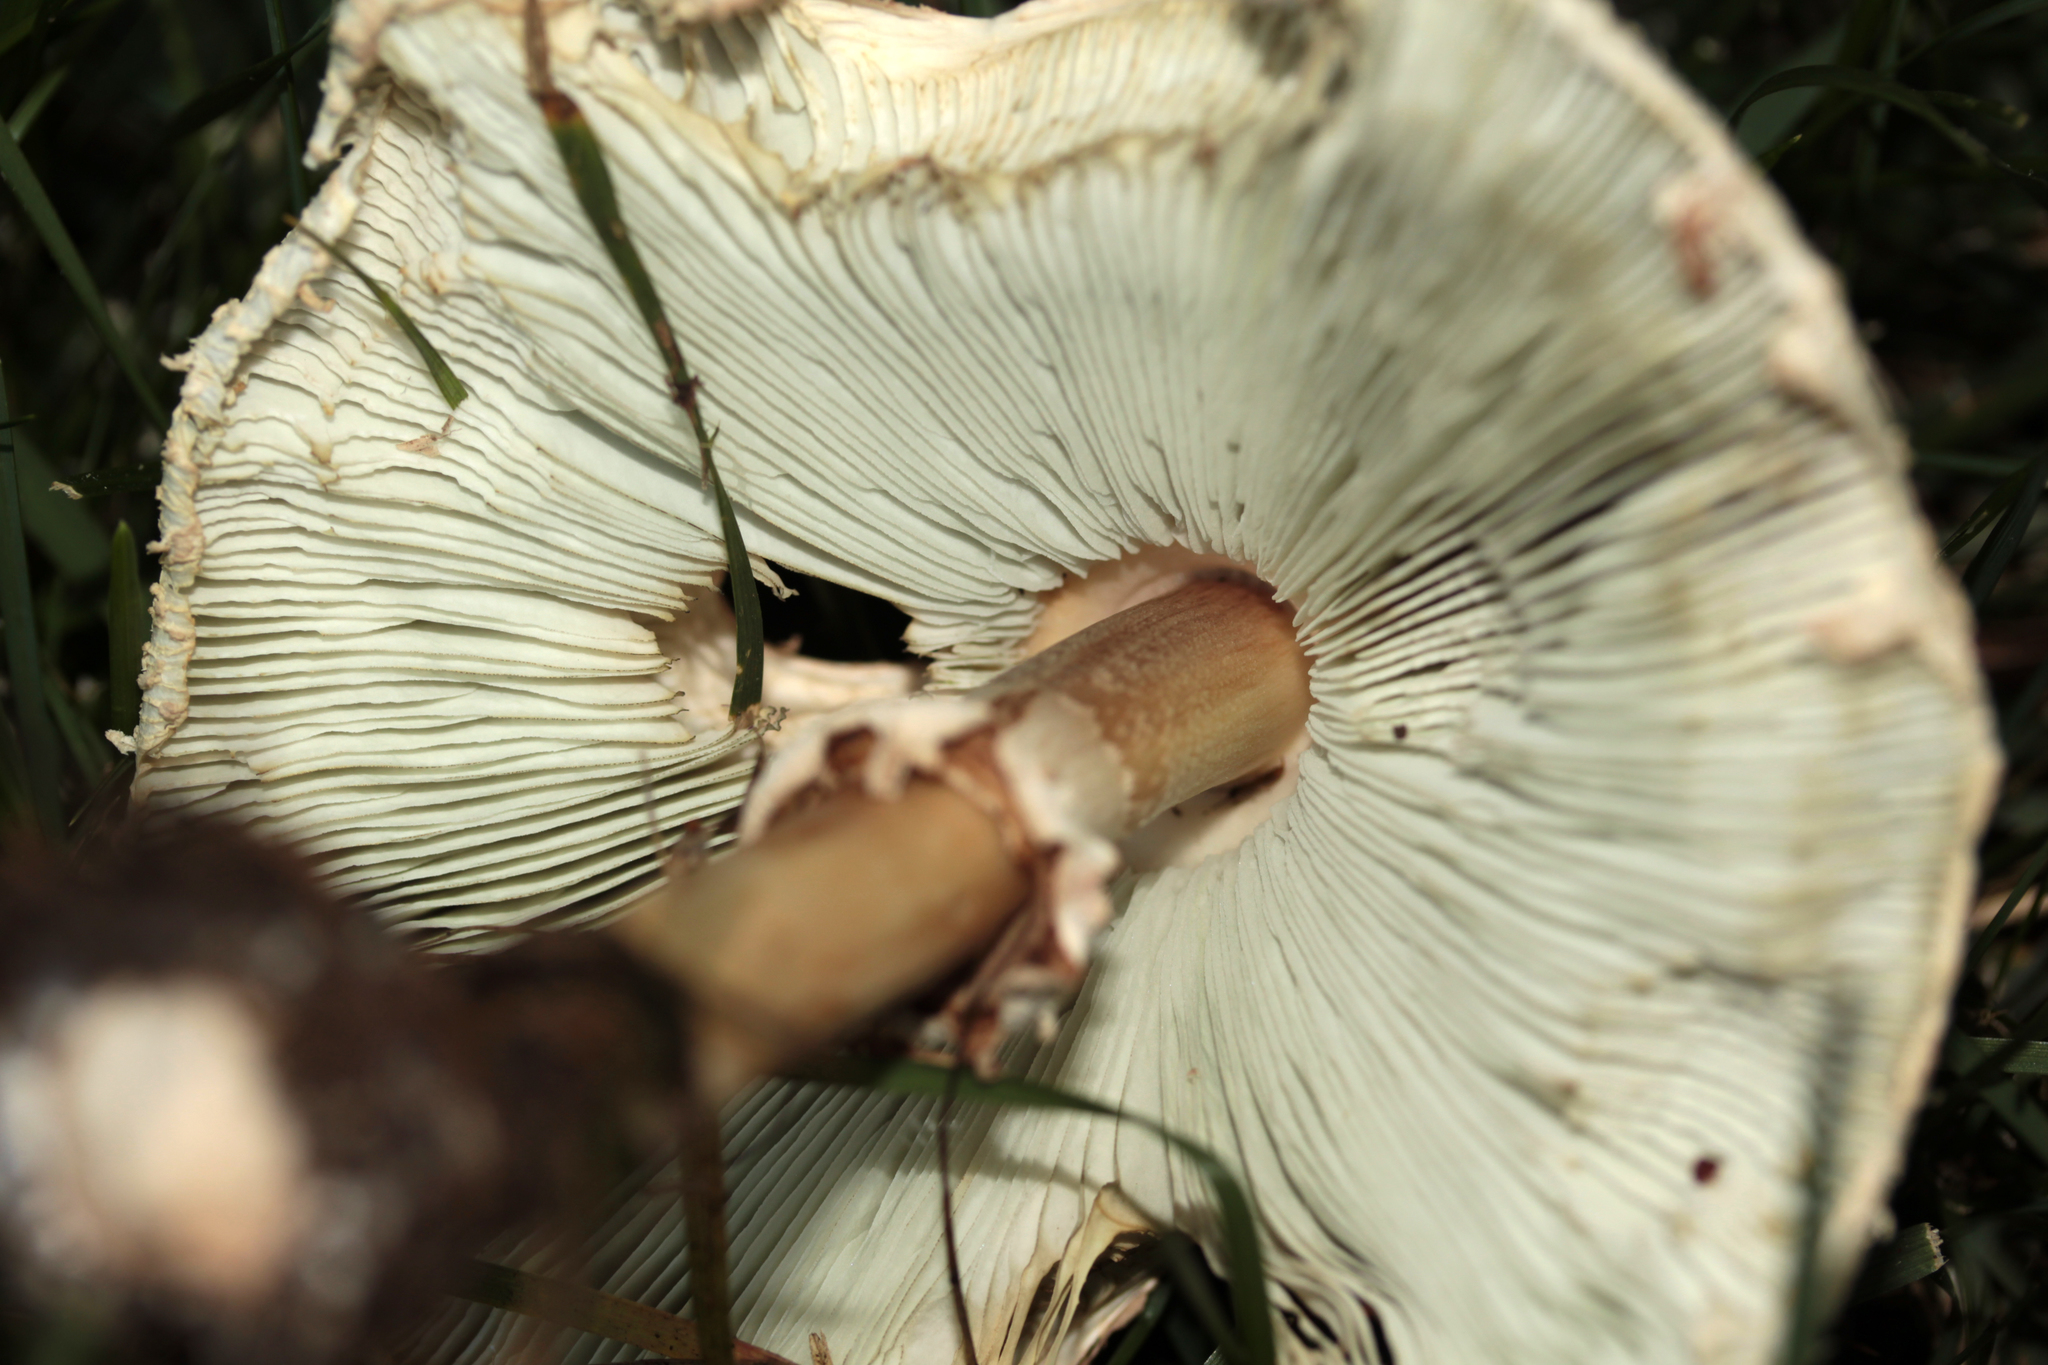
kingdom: Fungi
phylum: Basidiomycota
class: Agaricomycetes
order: Agaricales
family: Agaricaceae
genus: Chlorophyllum
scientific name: Chlorophyllum molybdites
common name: False parasol
